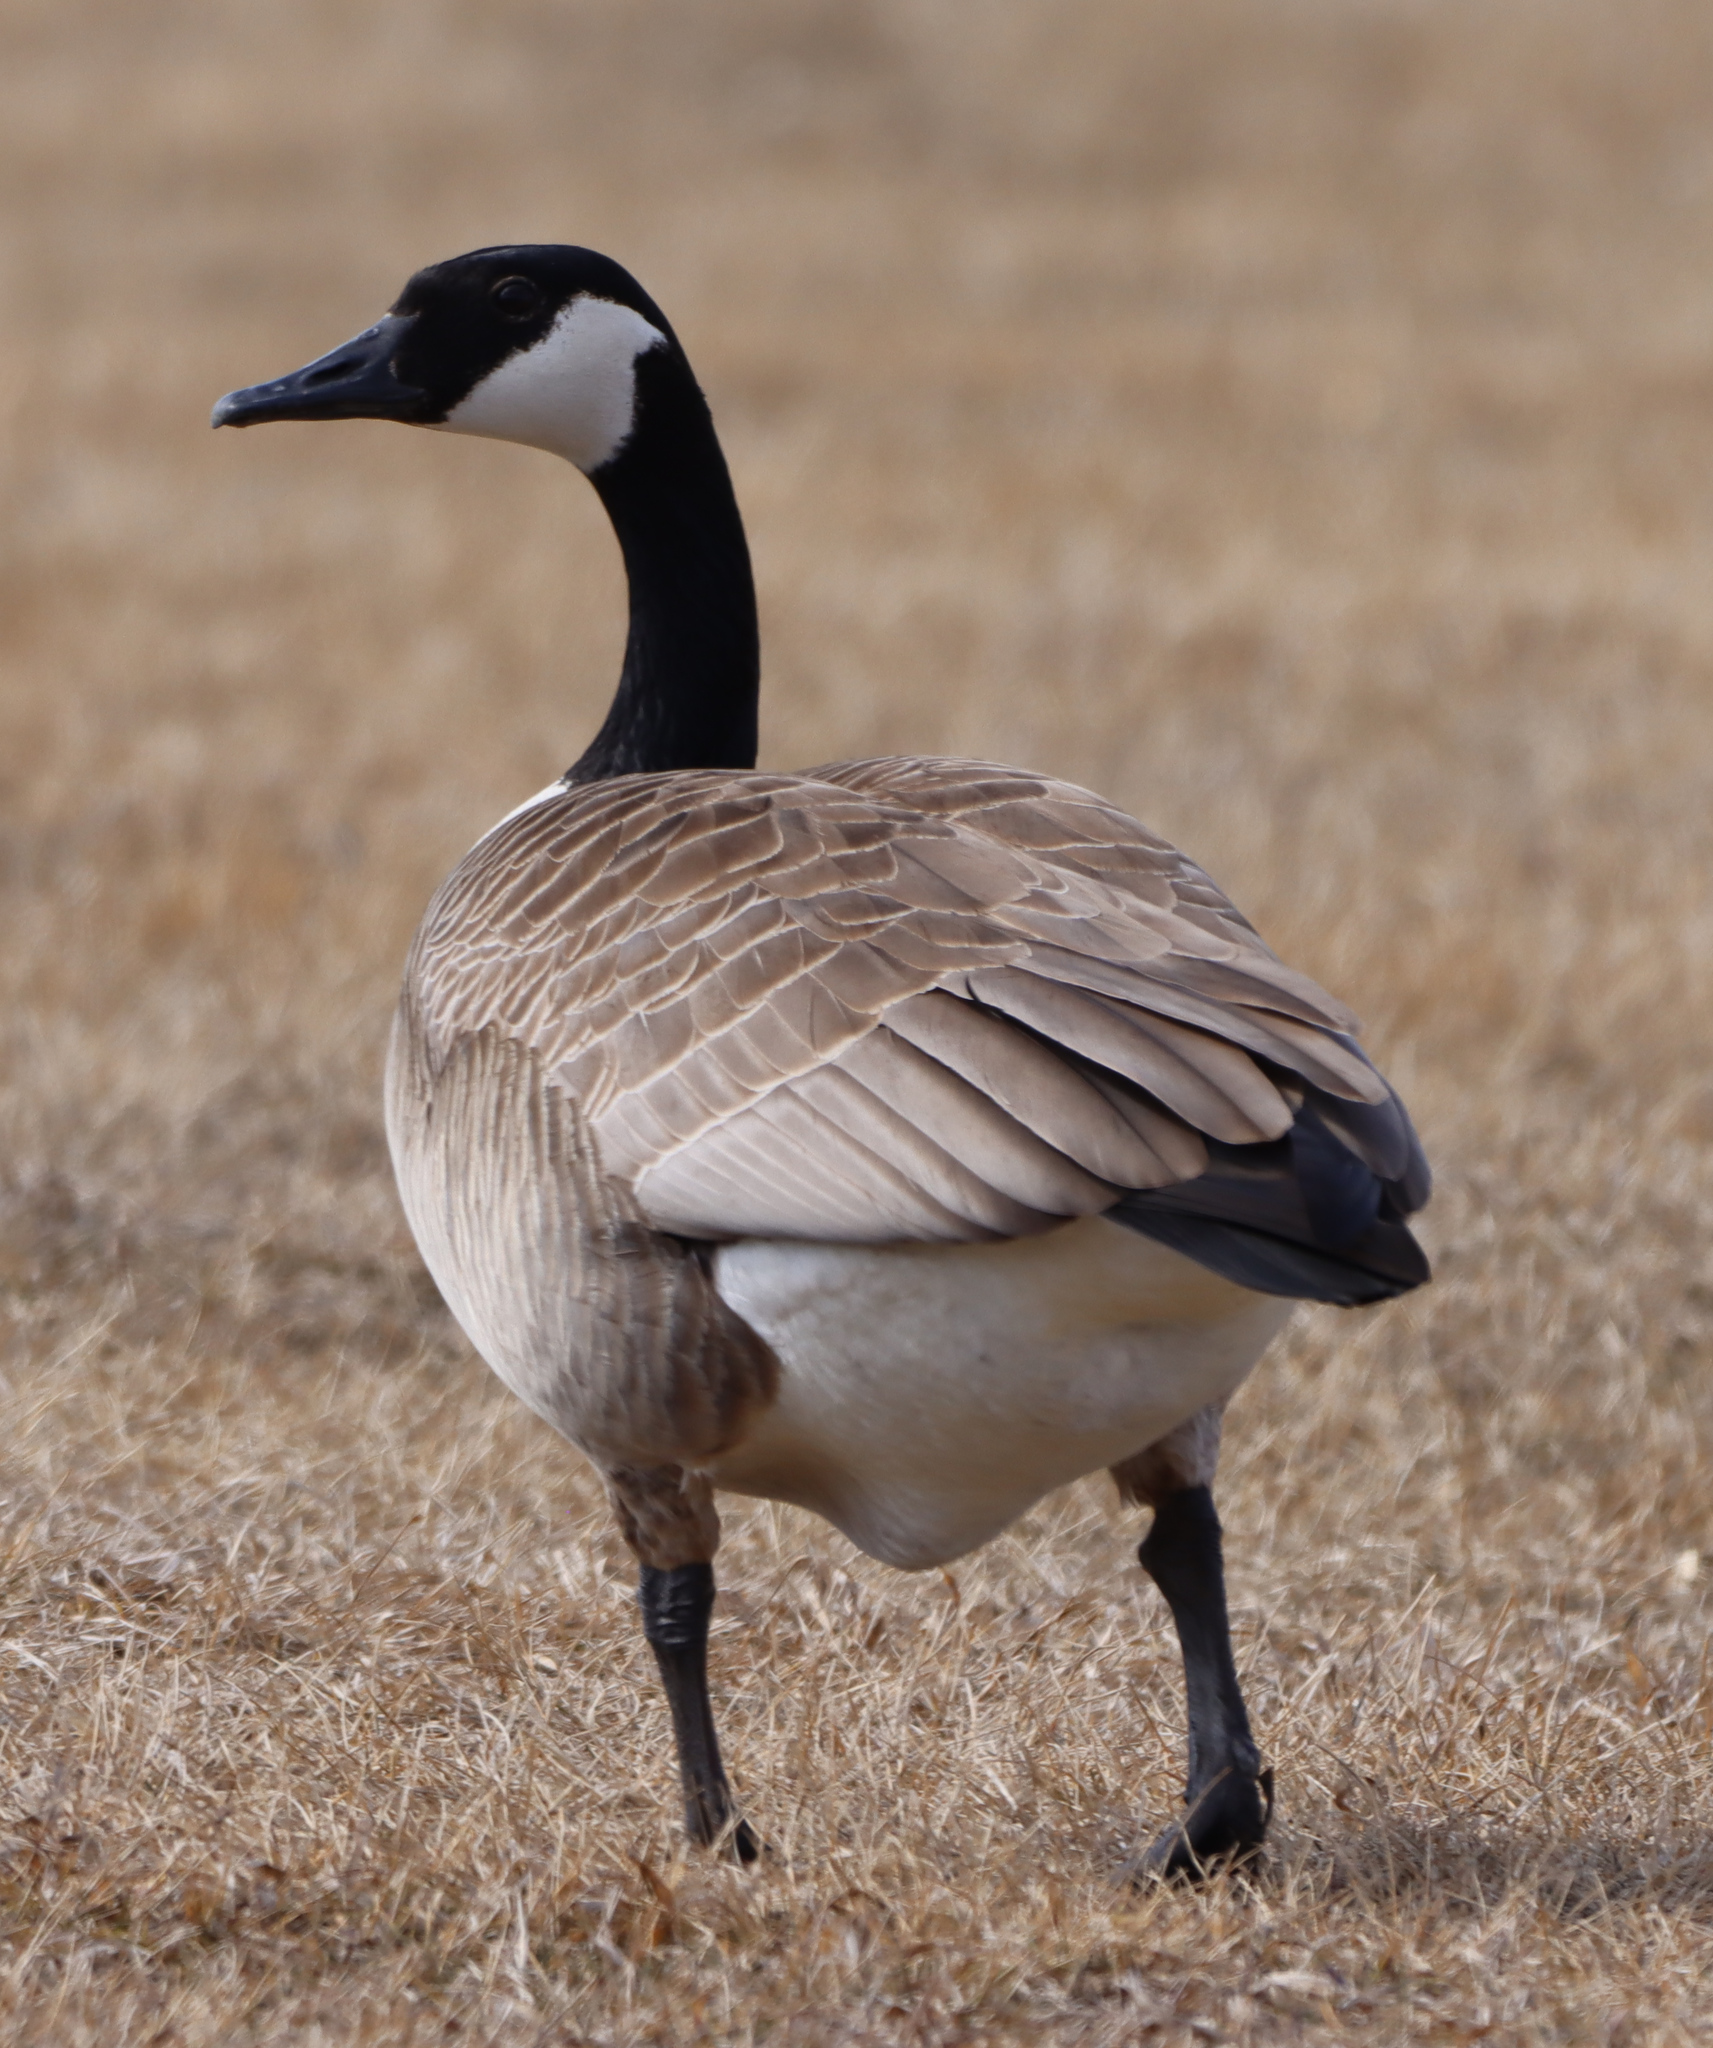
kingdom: Animalia
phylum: Chordata
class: Aves
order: Anseriformes
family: Anatidae
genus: Branta
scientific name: Branta canadensis
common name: Canada goose
